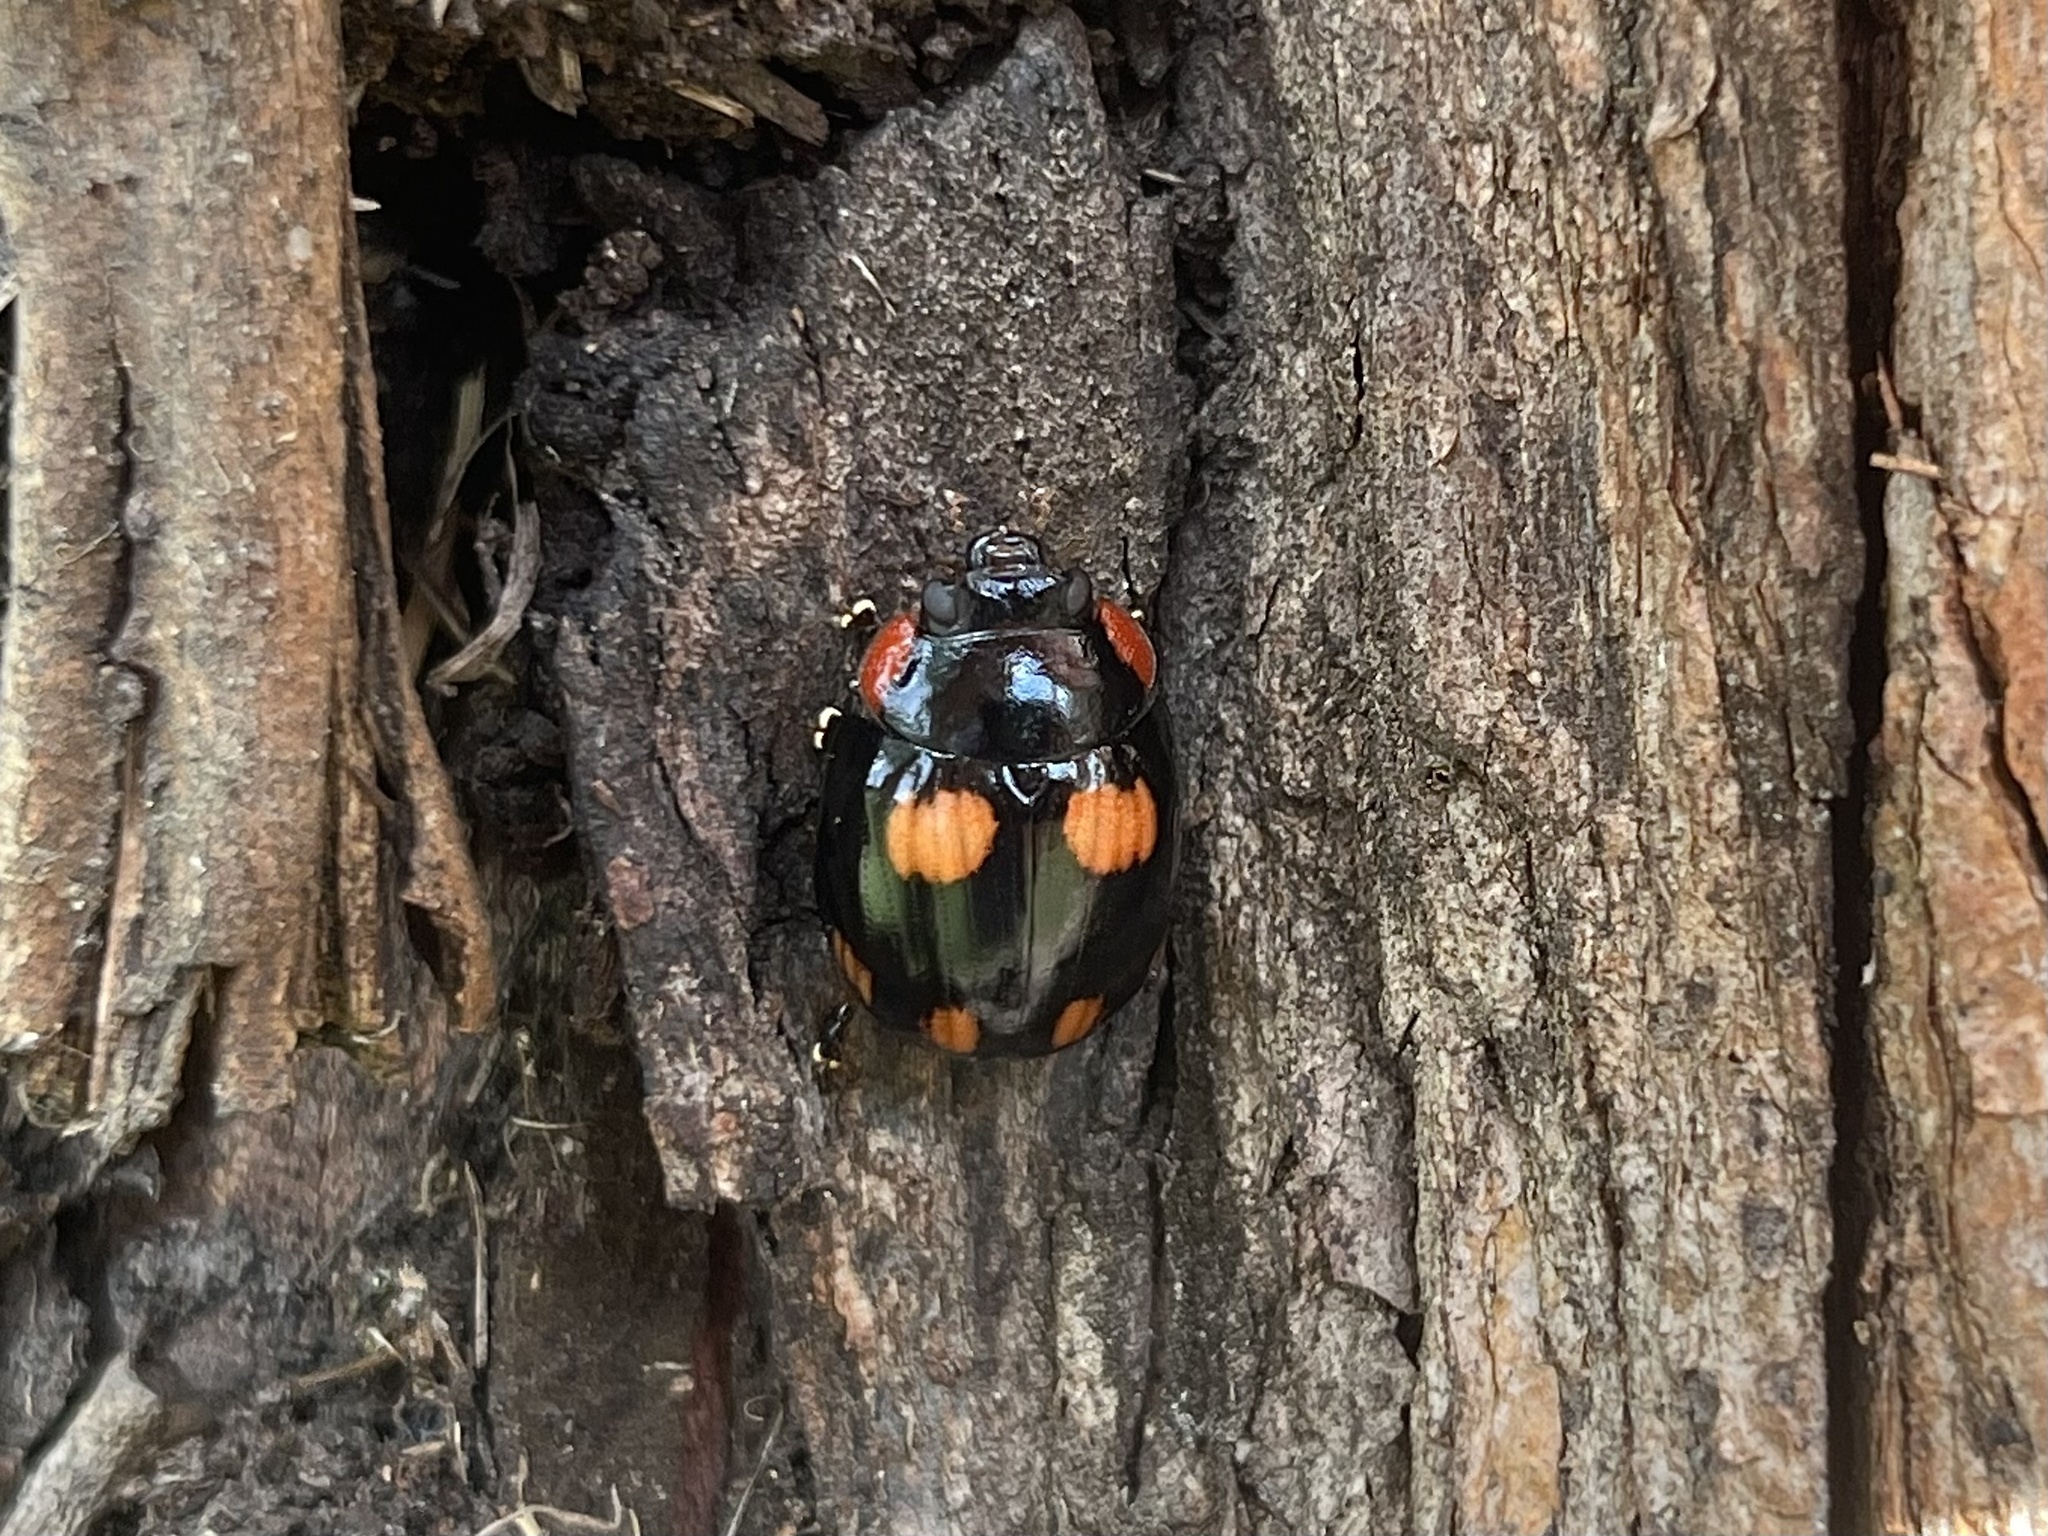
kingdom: Animalia
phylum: Arthropoda
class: Insecta
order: Coleoptera
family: Chrysomelidae
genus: Paropsisterna
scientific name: Paropsisterna
